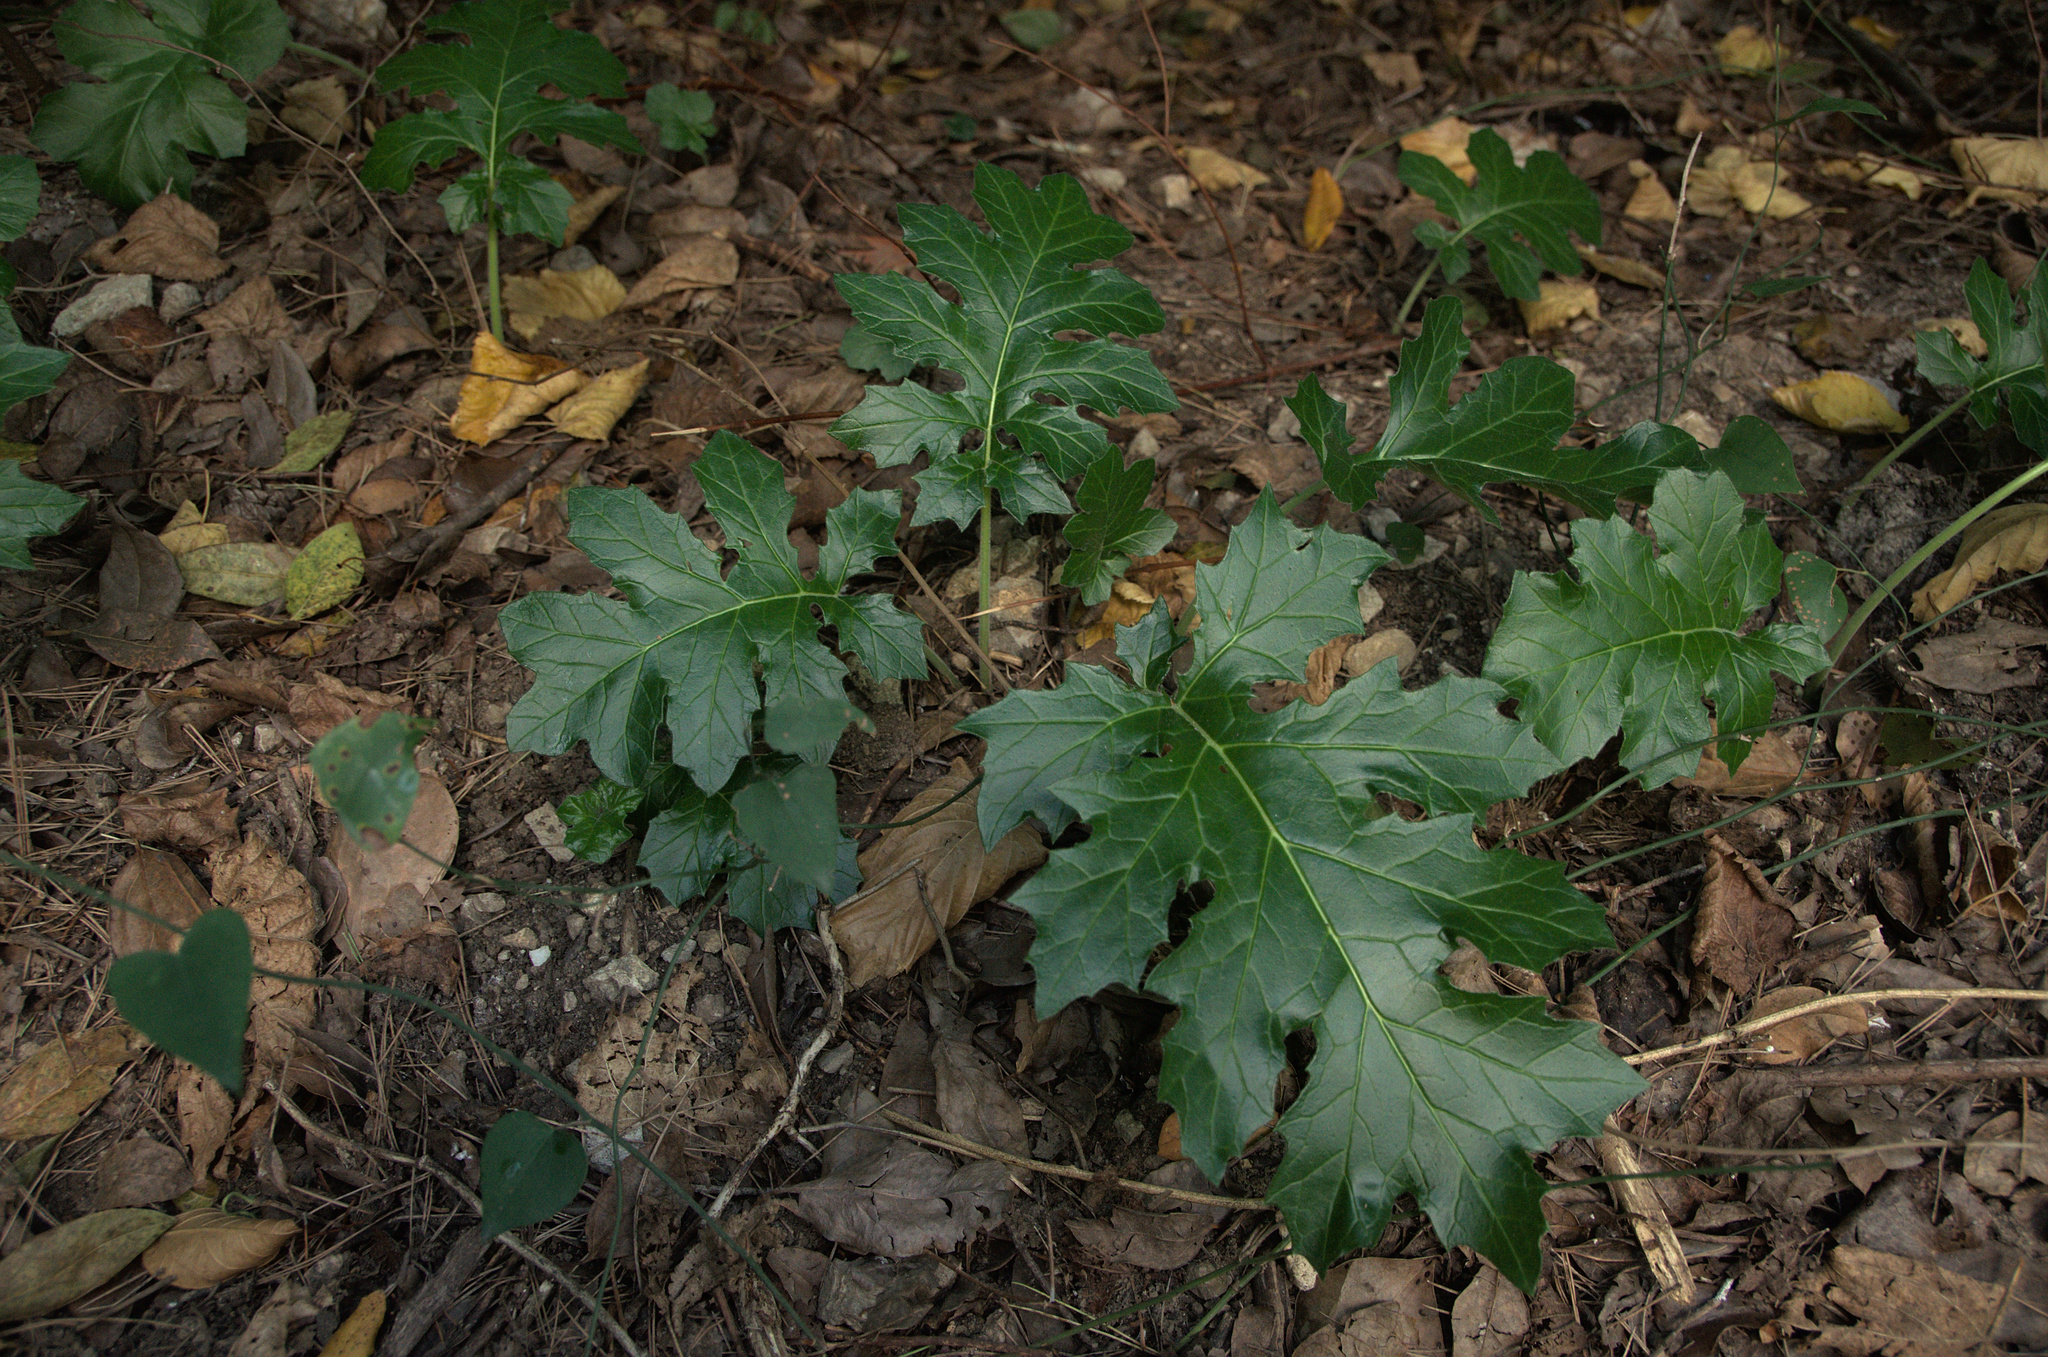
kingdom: Plantae
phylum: Tracheophyta
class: Magnoliopsida
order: Lamiales
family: Acanthaceae
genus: Acanthus
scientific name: Acanthus mollis
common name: Bear's-breech
